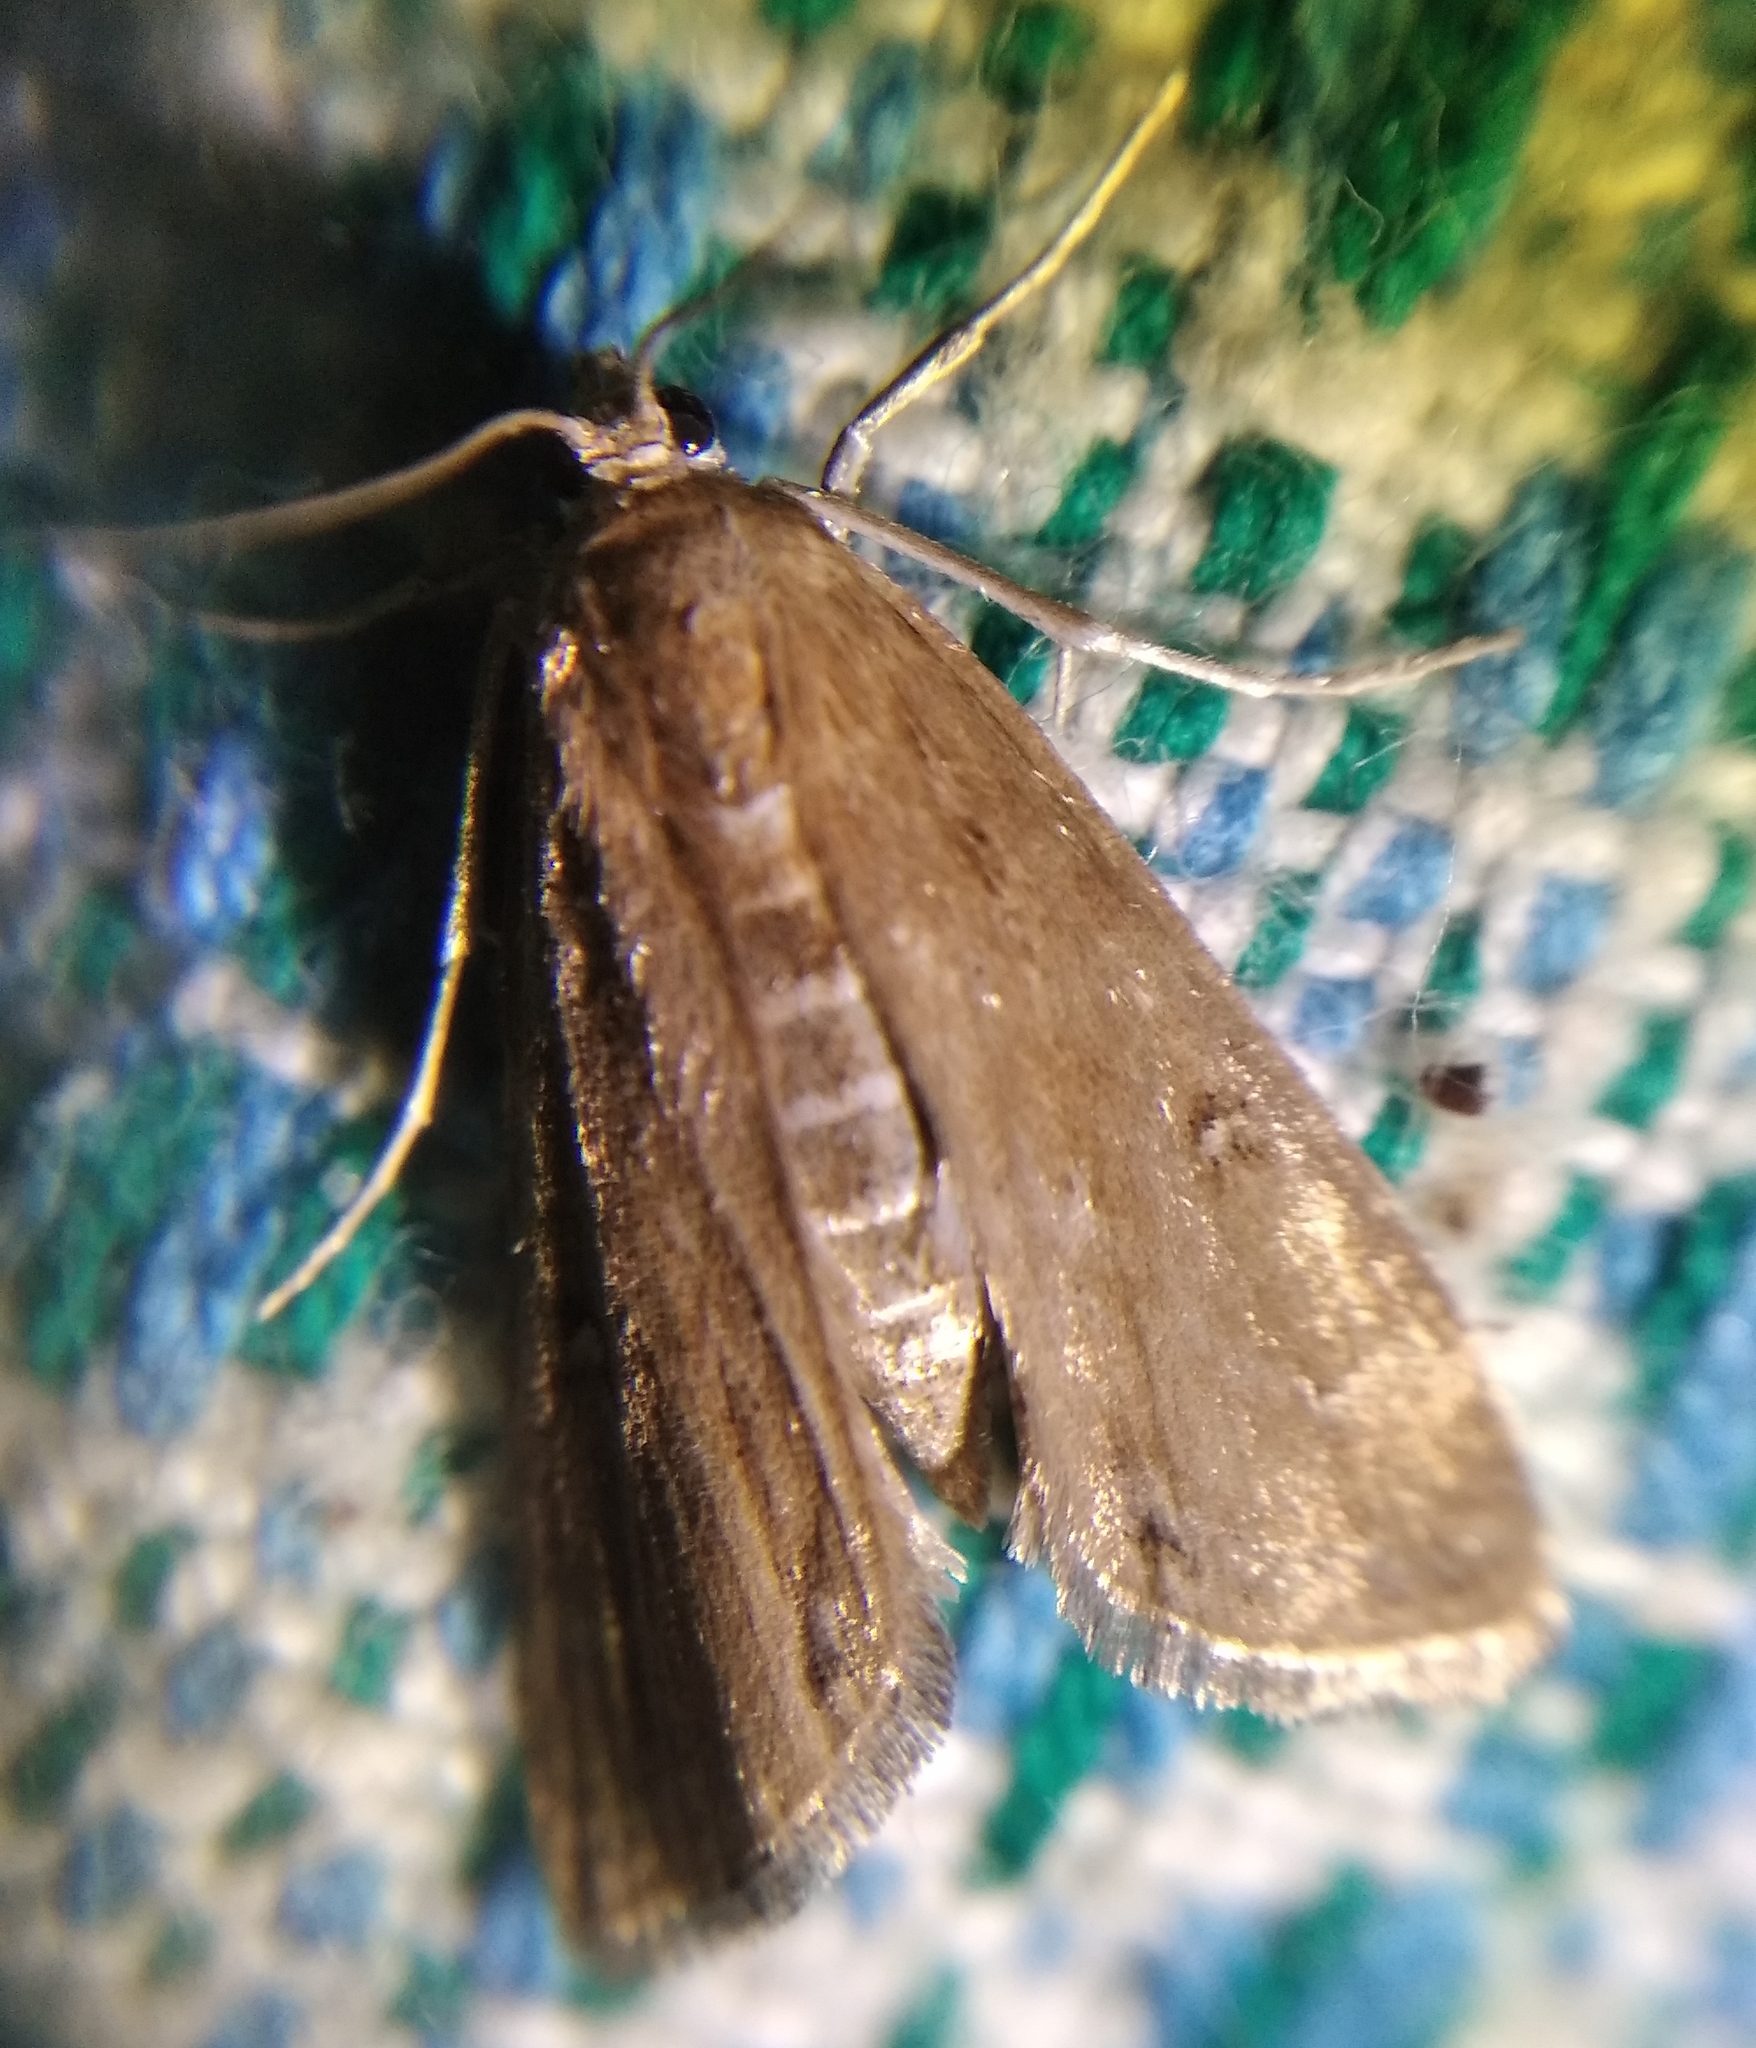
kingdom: Animalia
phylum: Arthropoda
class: Insecta
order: Lepidoptera
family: Crambidae
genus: Parapoynx
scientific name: Parapoynx stratiotata
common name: Ringed china-mark
